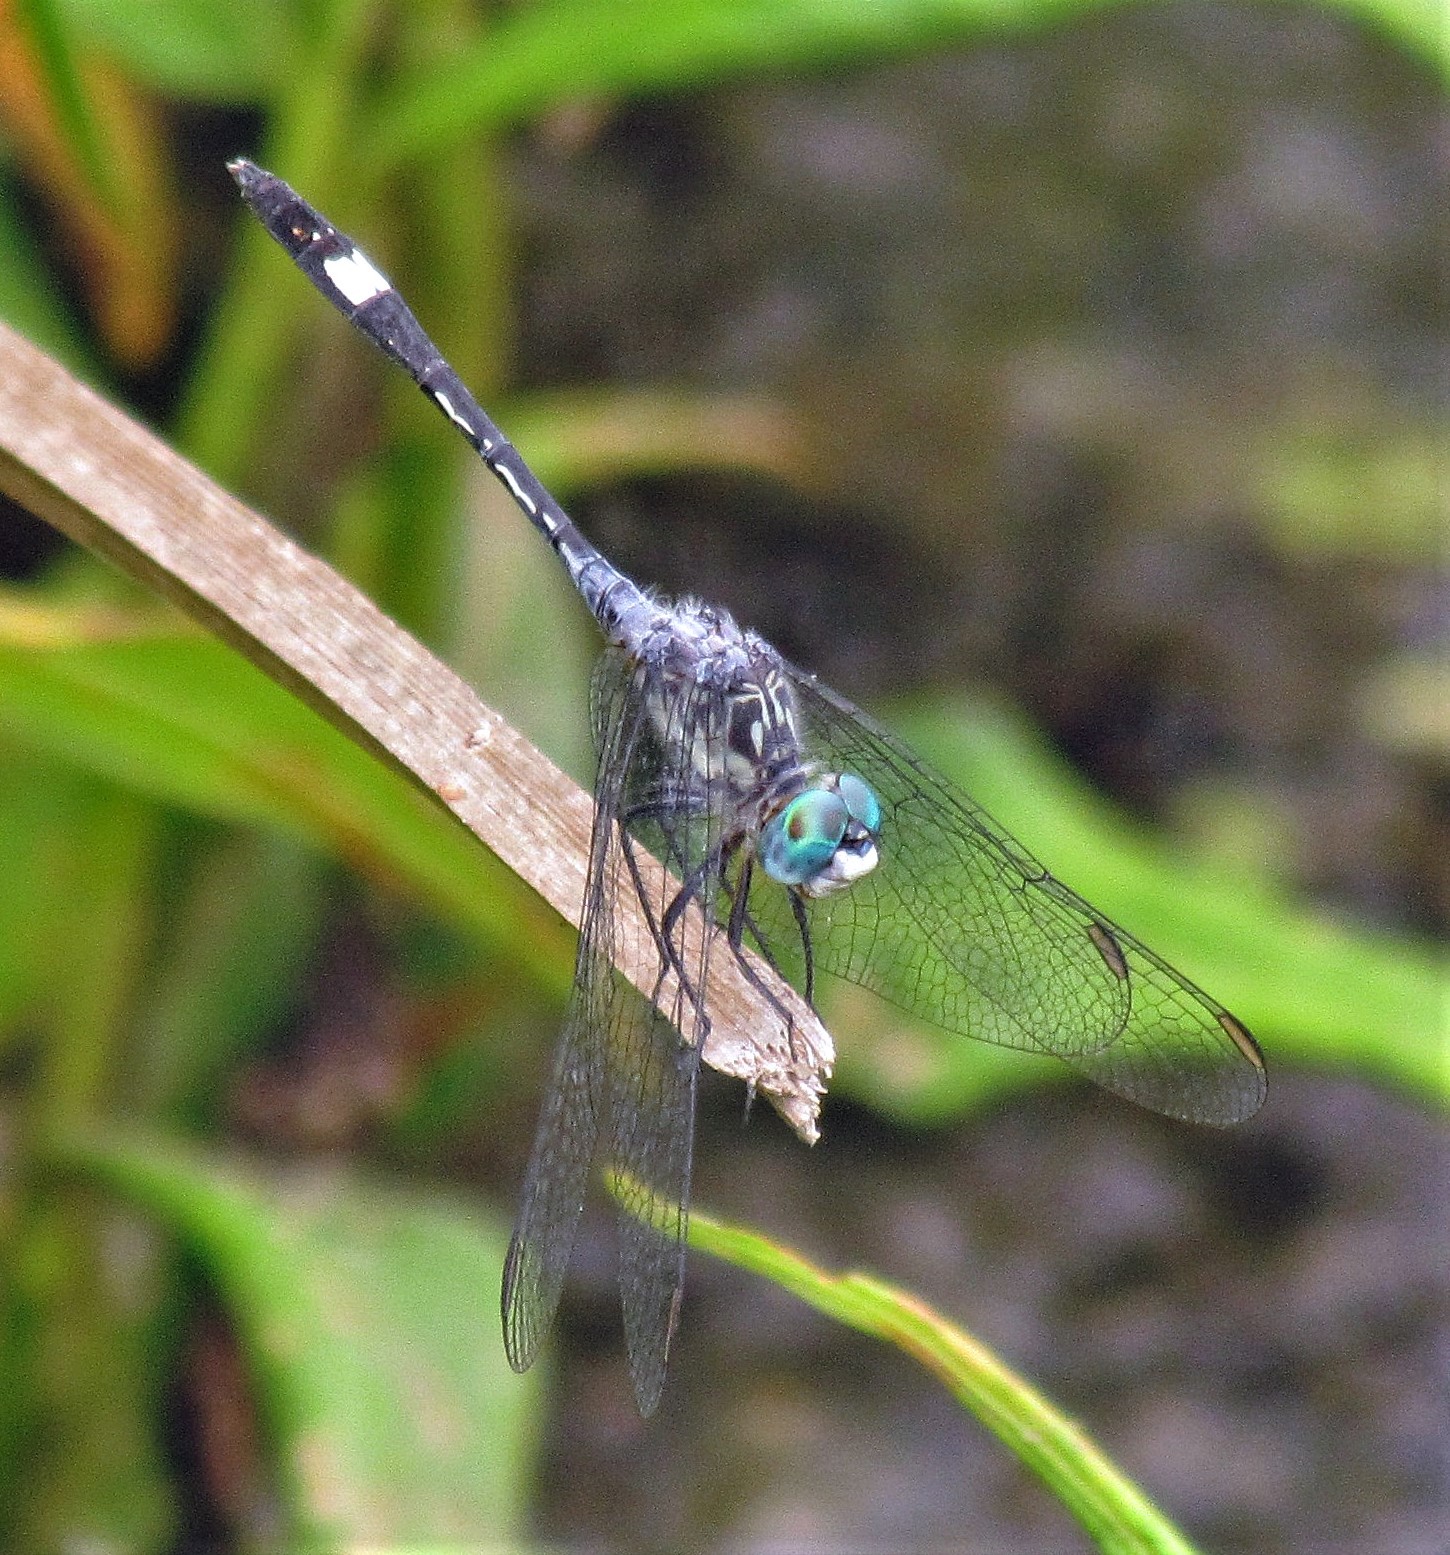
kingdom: Animalia
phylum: Arthropoda
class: Insecta
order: Odonata
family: Libellulidae
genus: Micrathyria
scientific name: Micrathyria longifasciata
